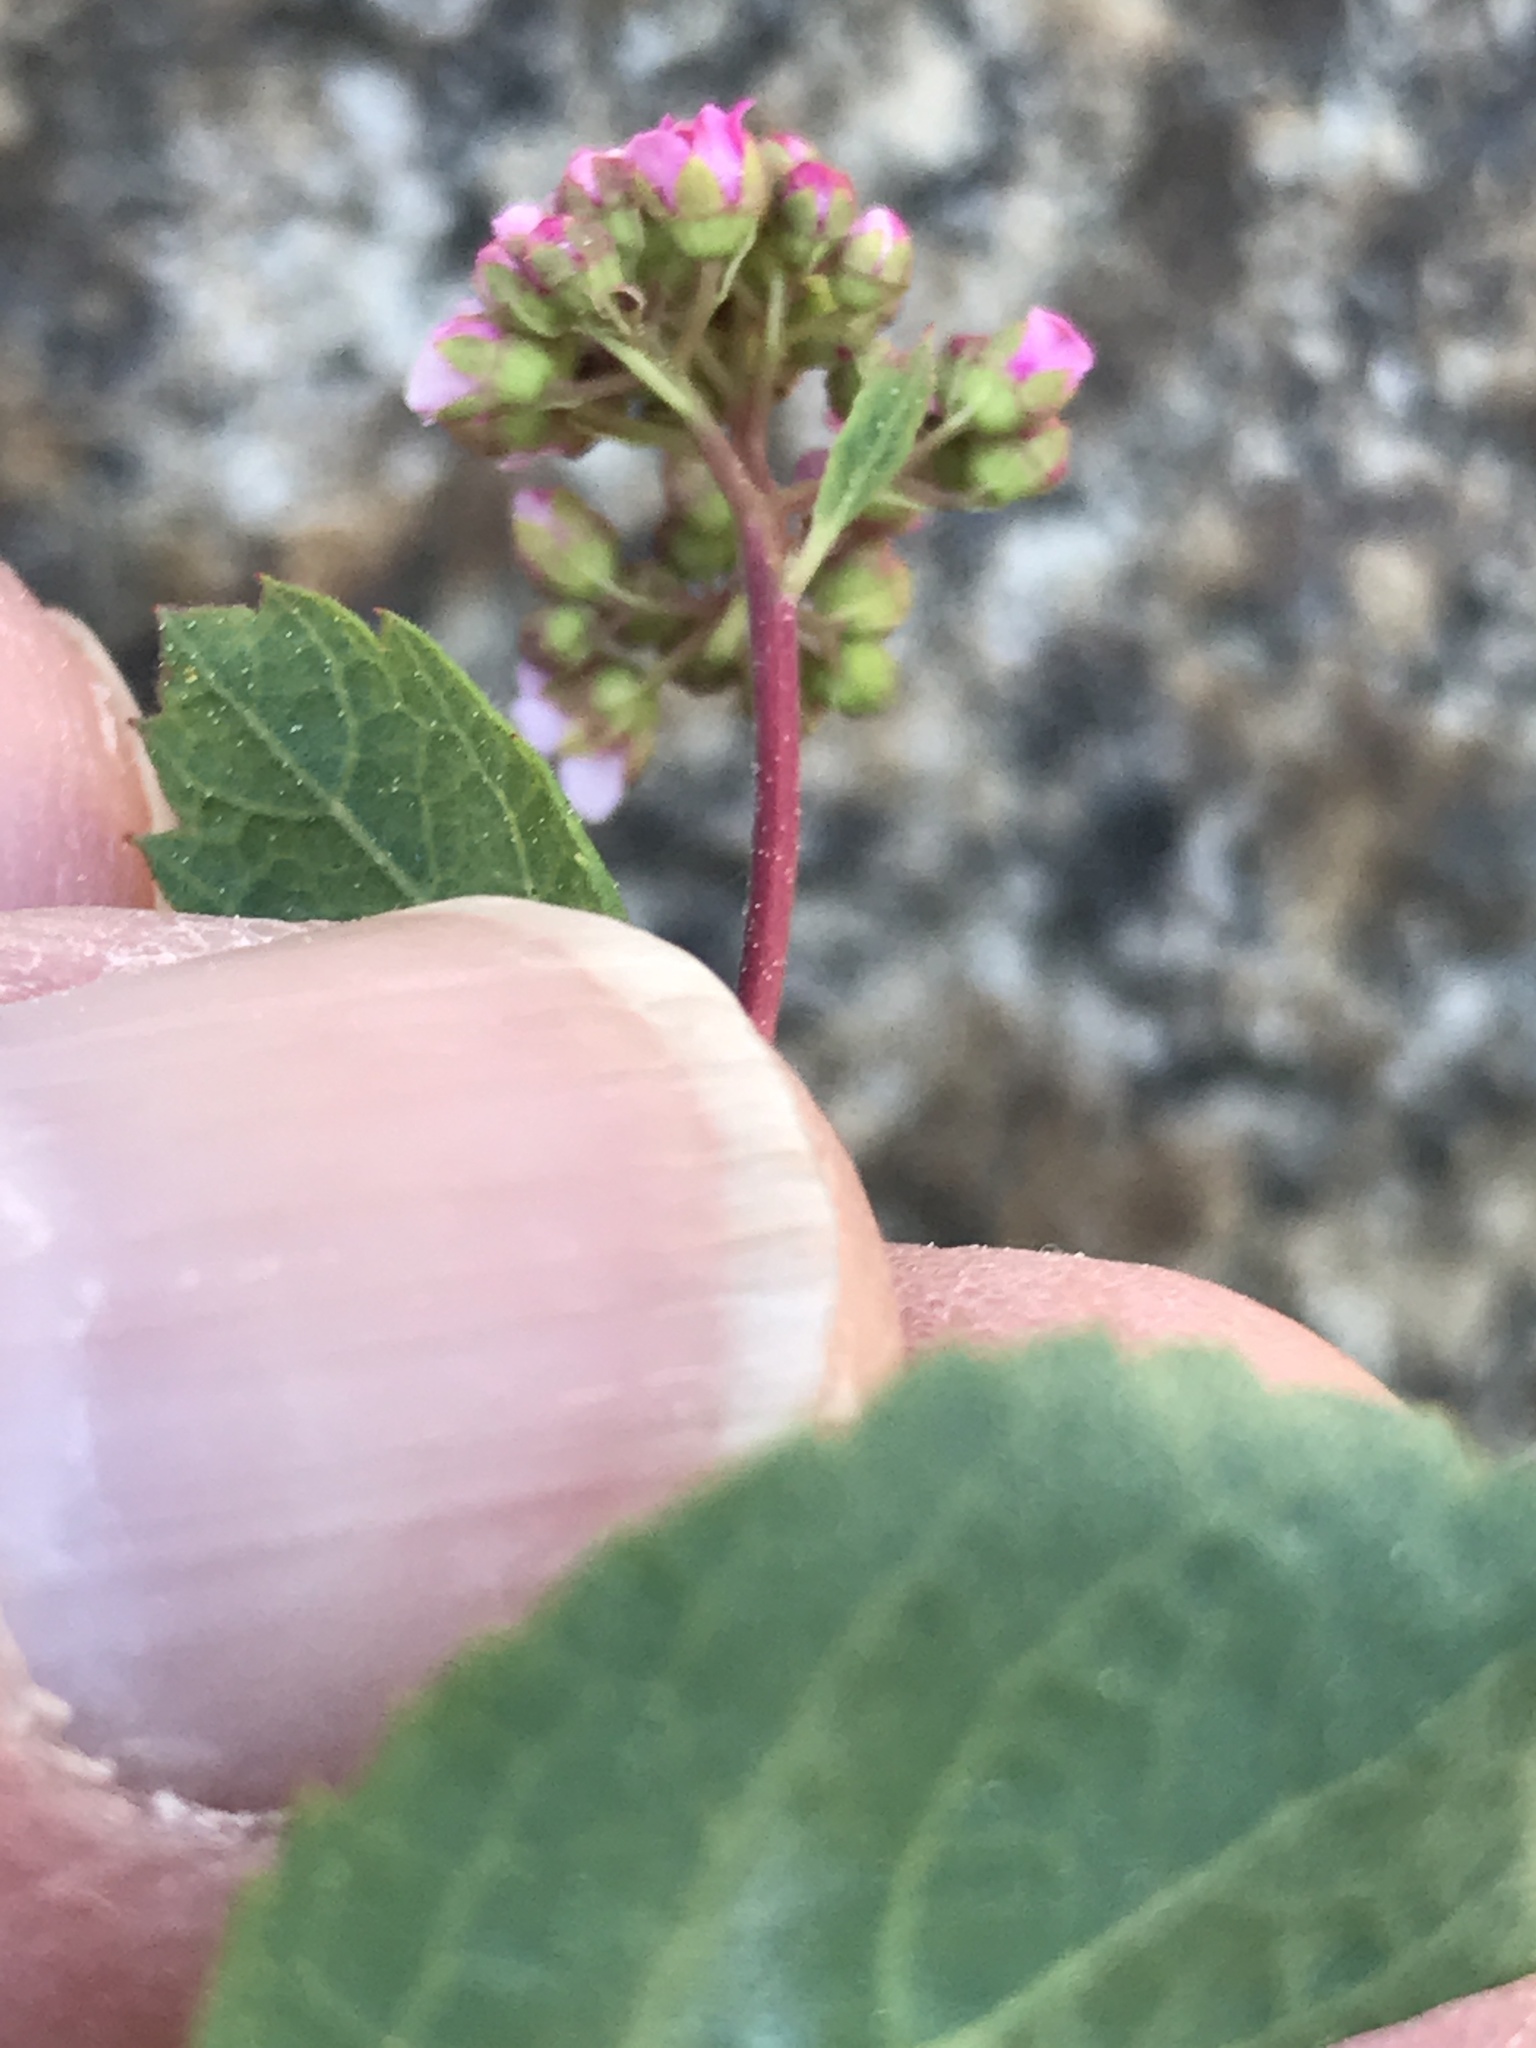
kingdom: Plantae
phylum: Tracheophyta
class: Magnoliopsida
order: Rosales
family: Rosaceae
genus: Spiraea
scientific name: Spiraea splendens
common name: Subalpine meadowsweet
